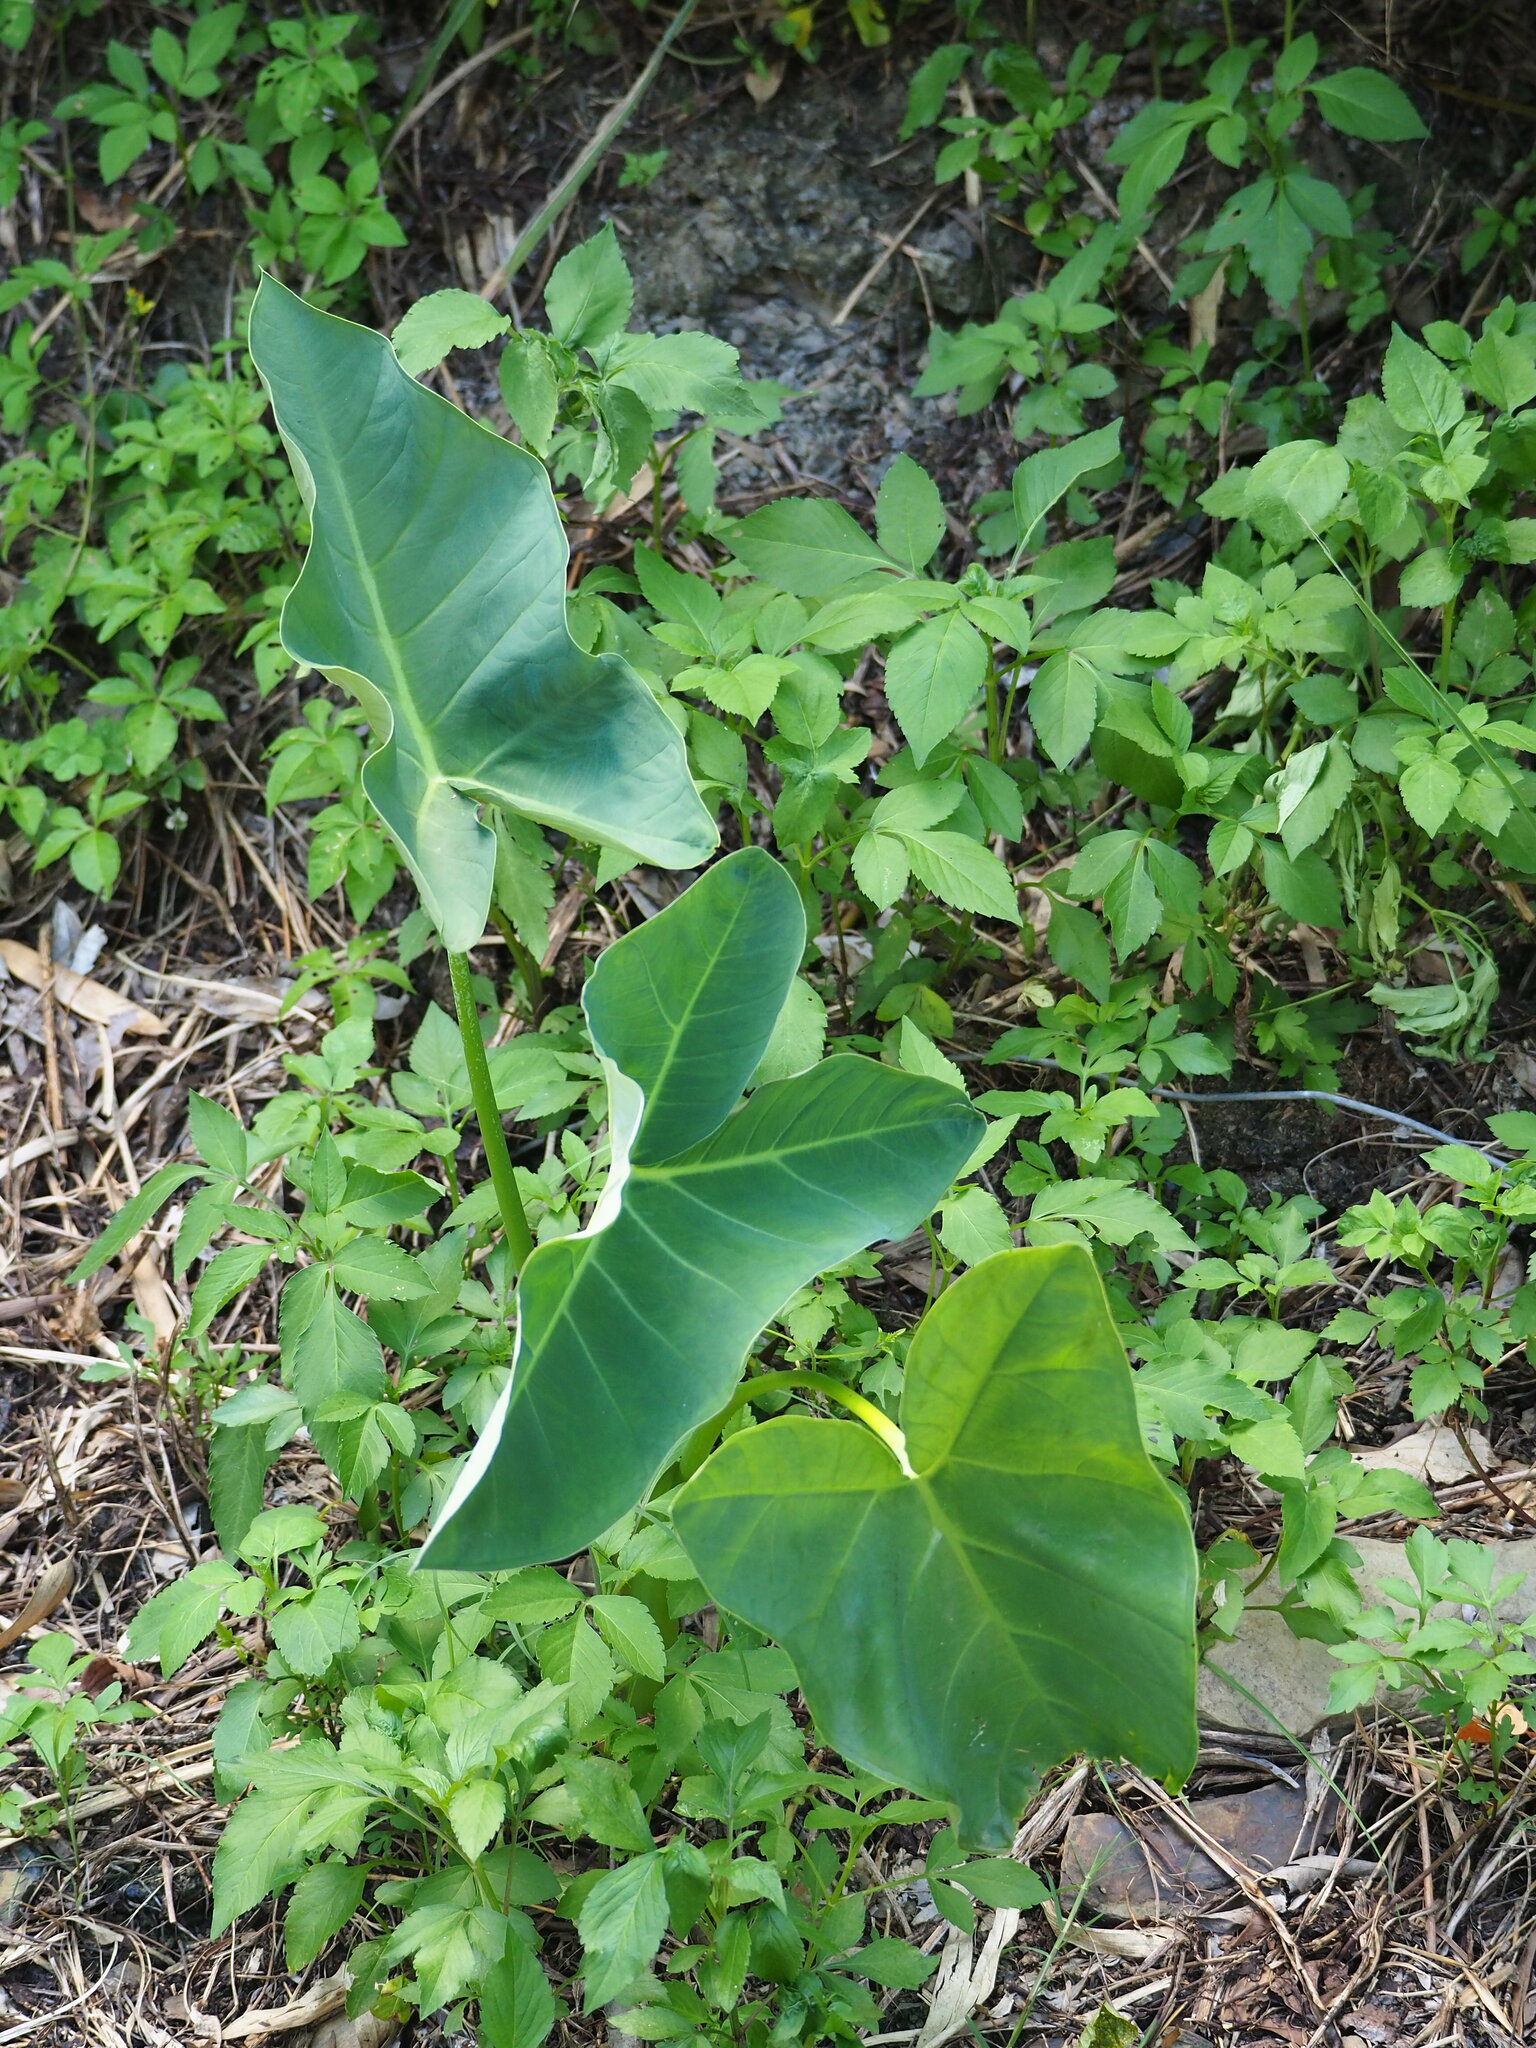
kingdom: Plantae
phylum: Tracheophyta
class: Liliopsida
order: Alismatales
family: Araceae
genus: Xanthosoma
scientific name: Xanthosoma sagittifolium
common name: Arrowleaf elephant's ear
